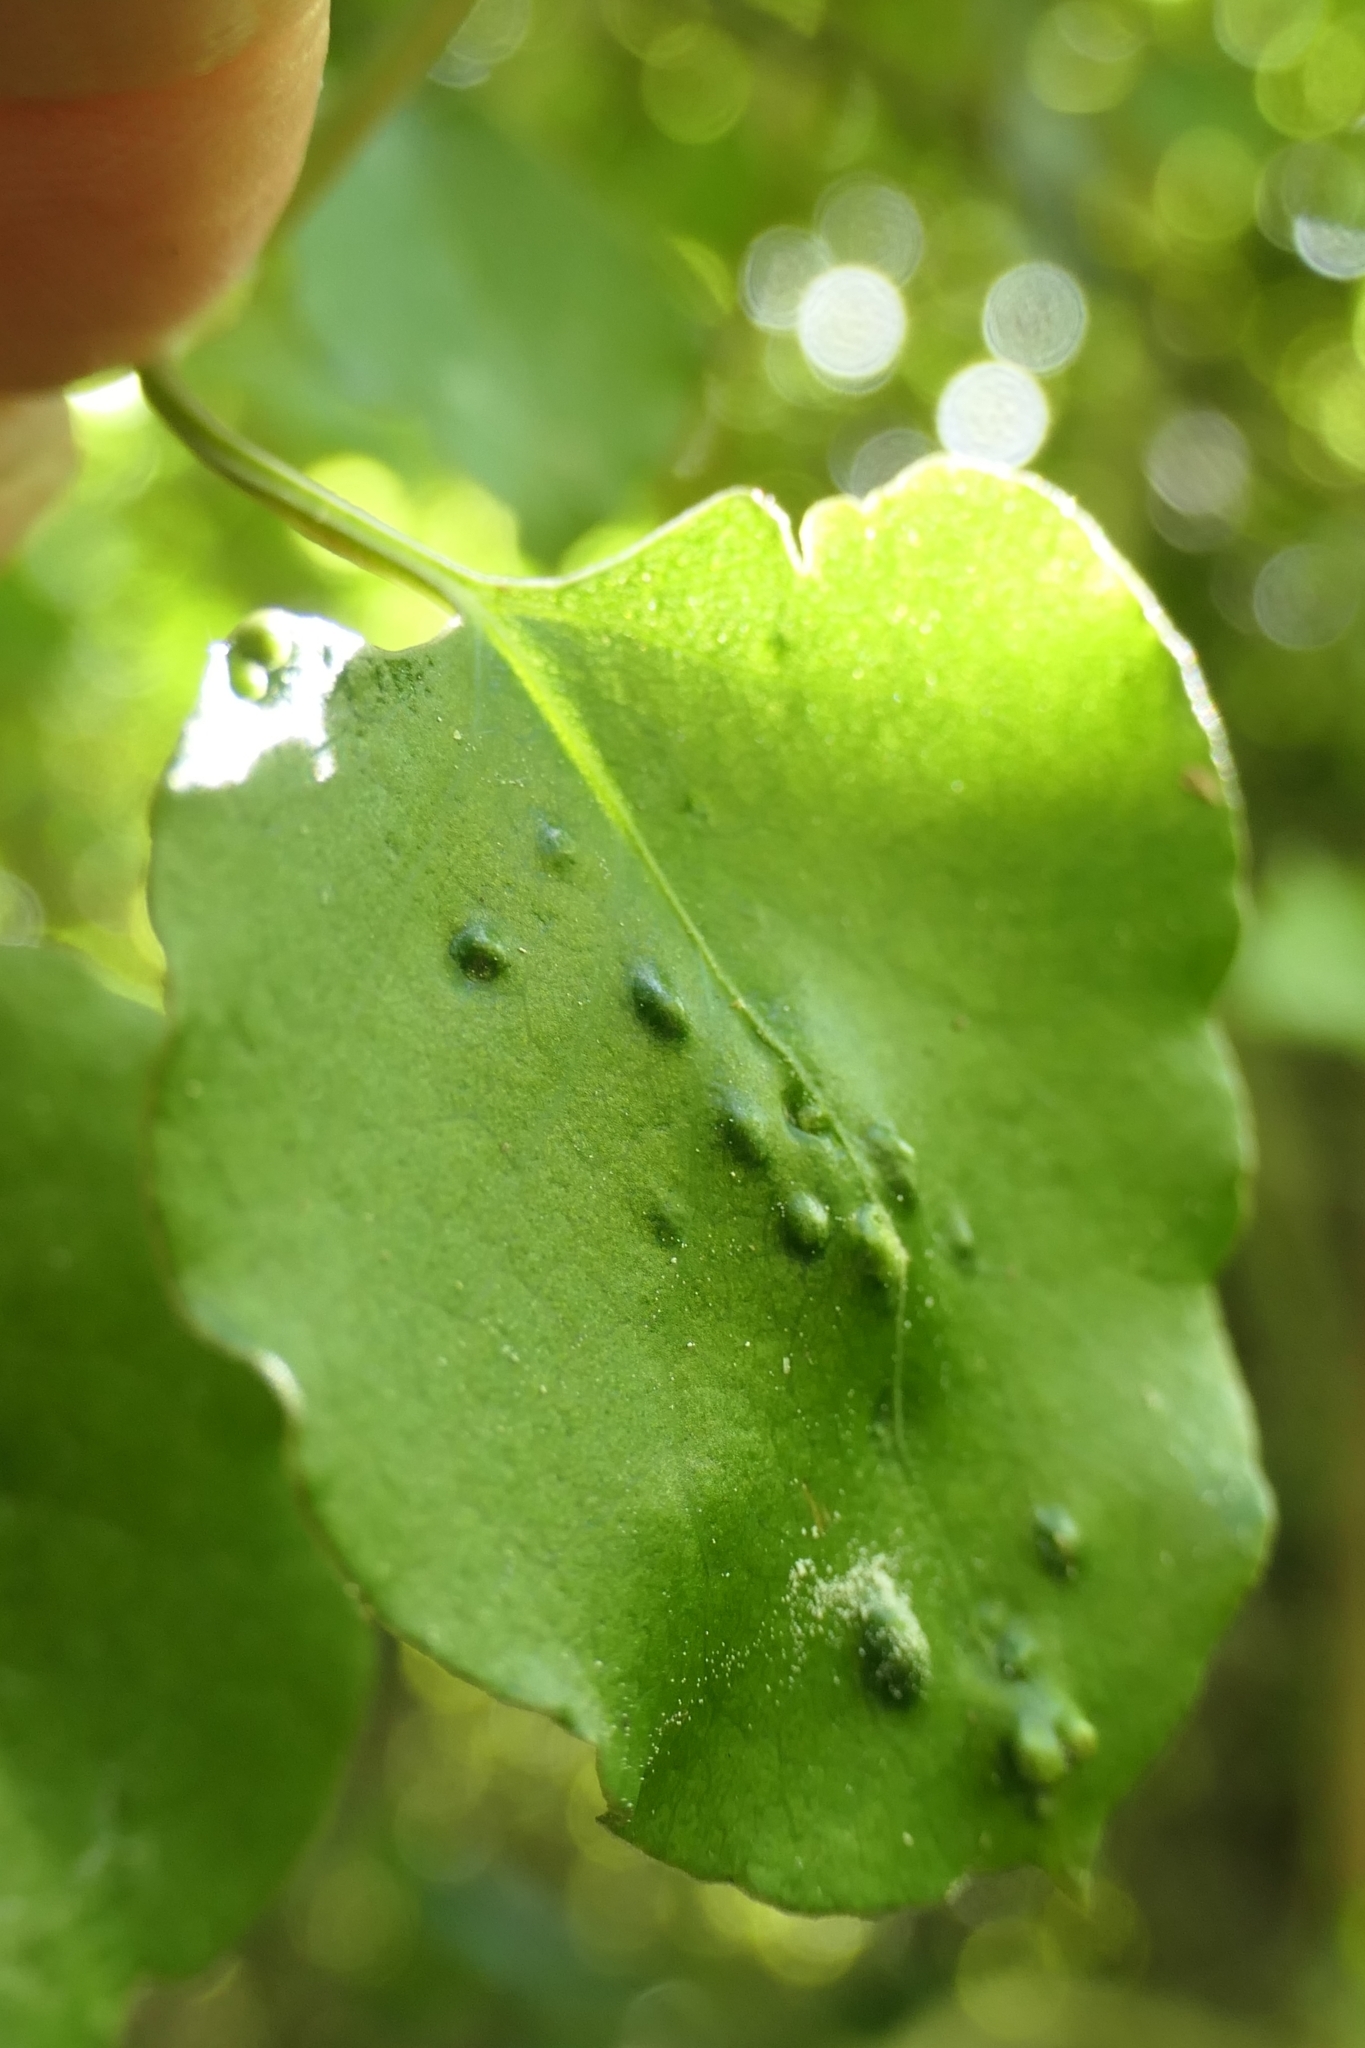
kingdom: Animalia
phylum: Arthropoda
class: Arachnida
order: Trombidiformes
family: Eriophyidae
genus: Aceria
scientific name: Aceria lamii
